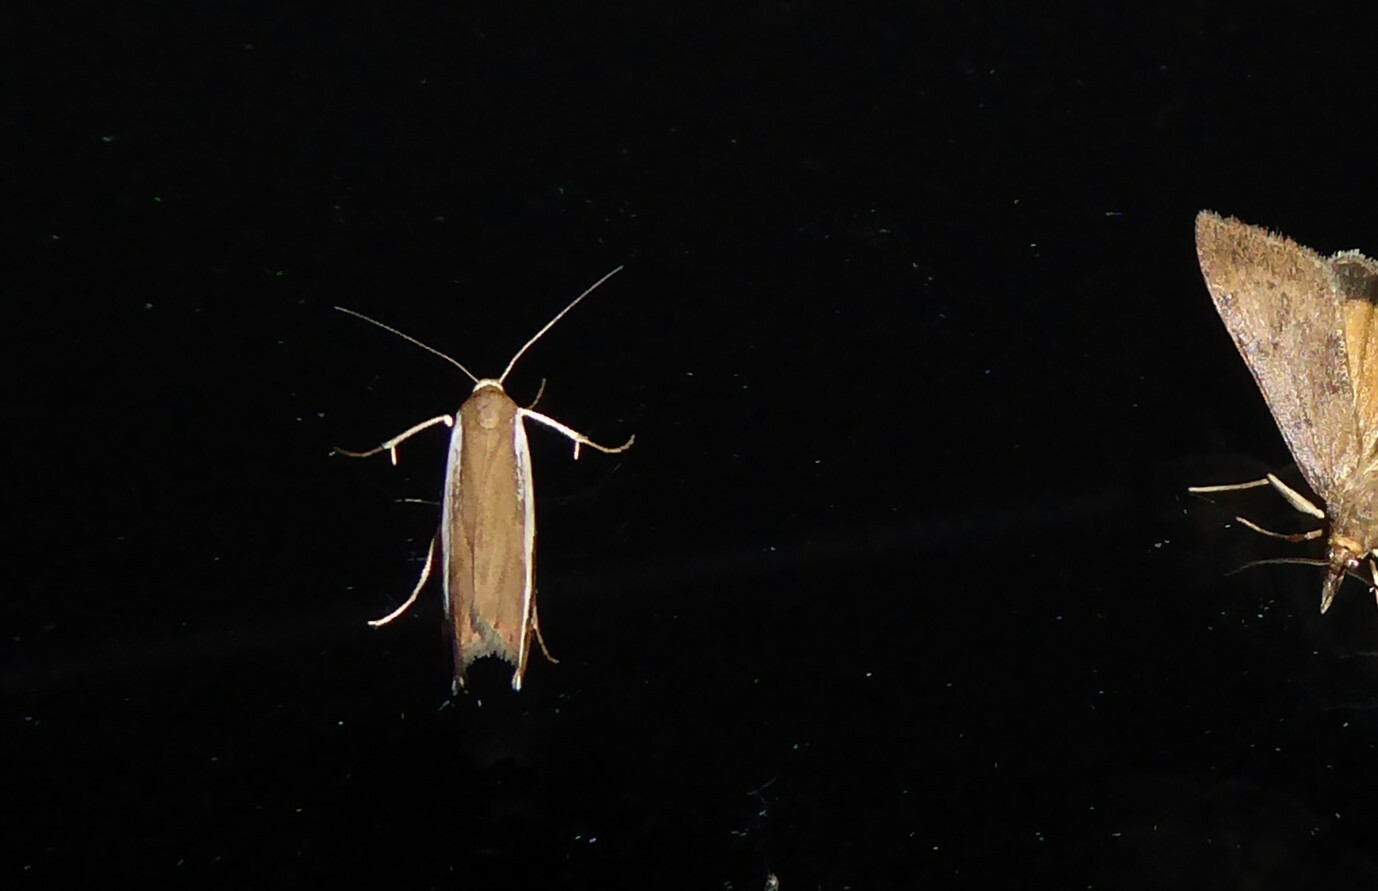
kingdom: Animalia
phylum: Arthropoda
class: Insecta
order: Lepidoptera
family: Crambidae
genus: Orocrambus
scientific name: Orocrambus flexuosellus
